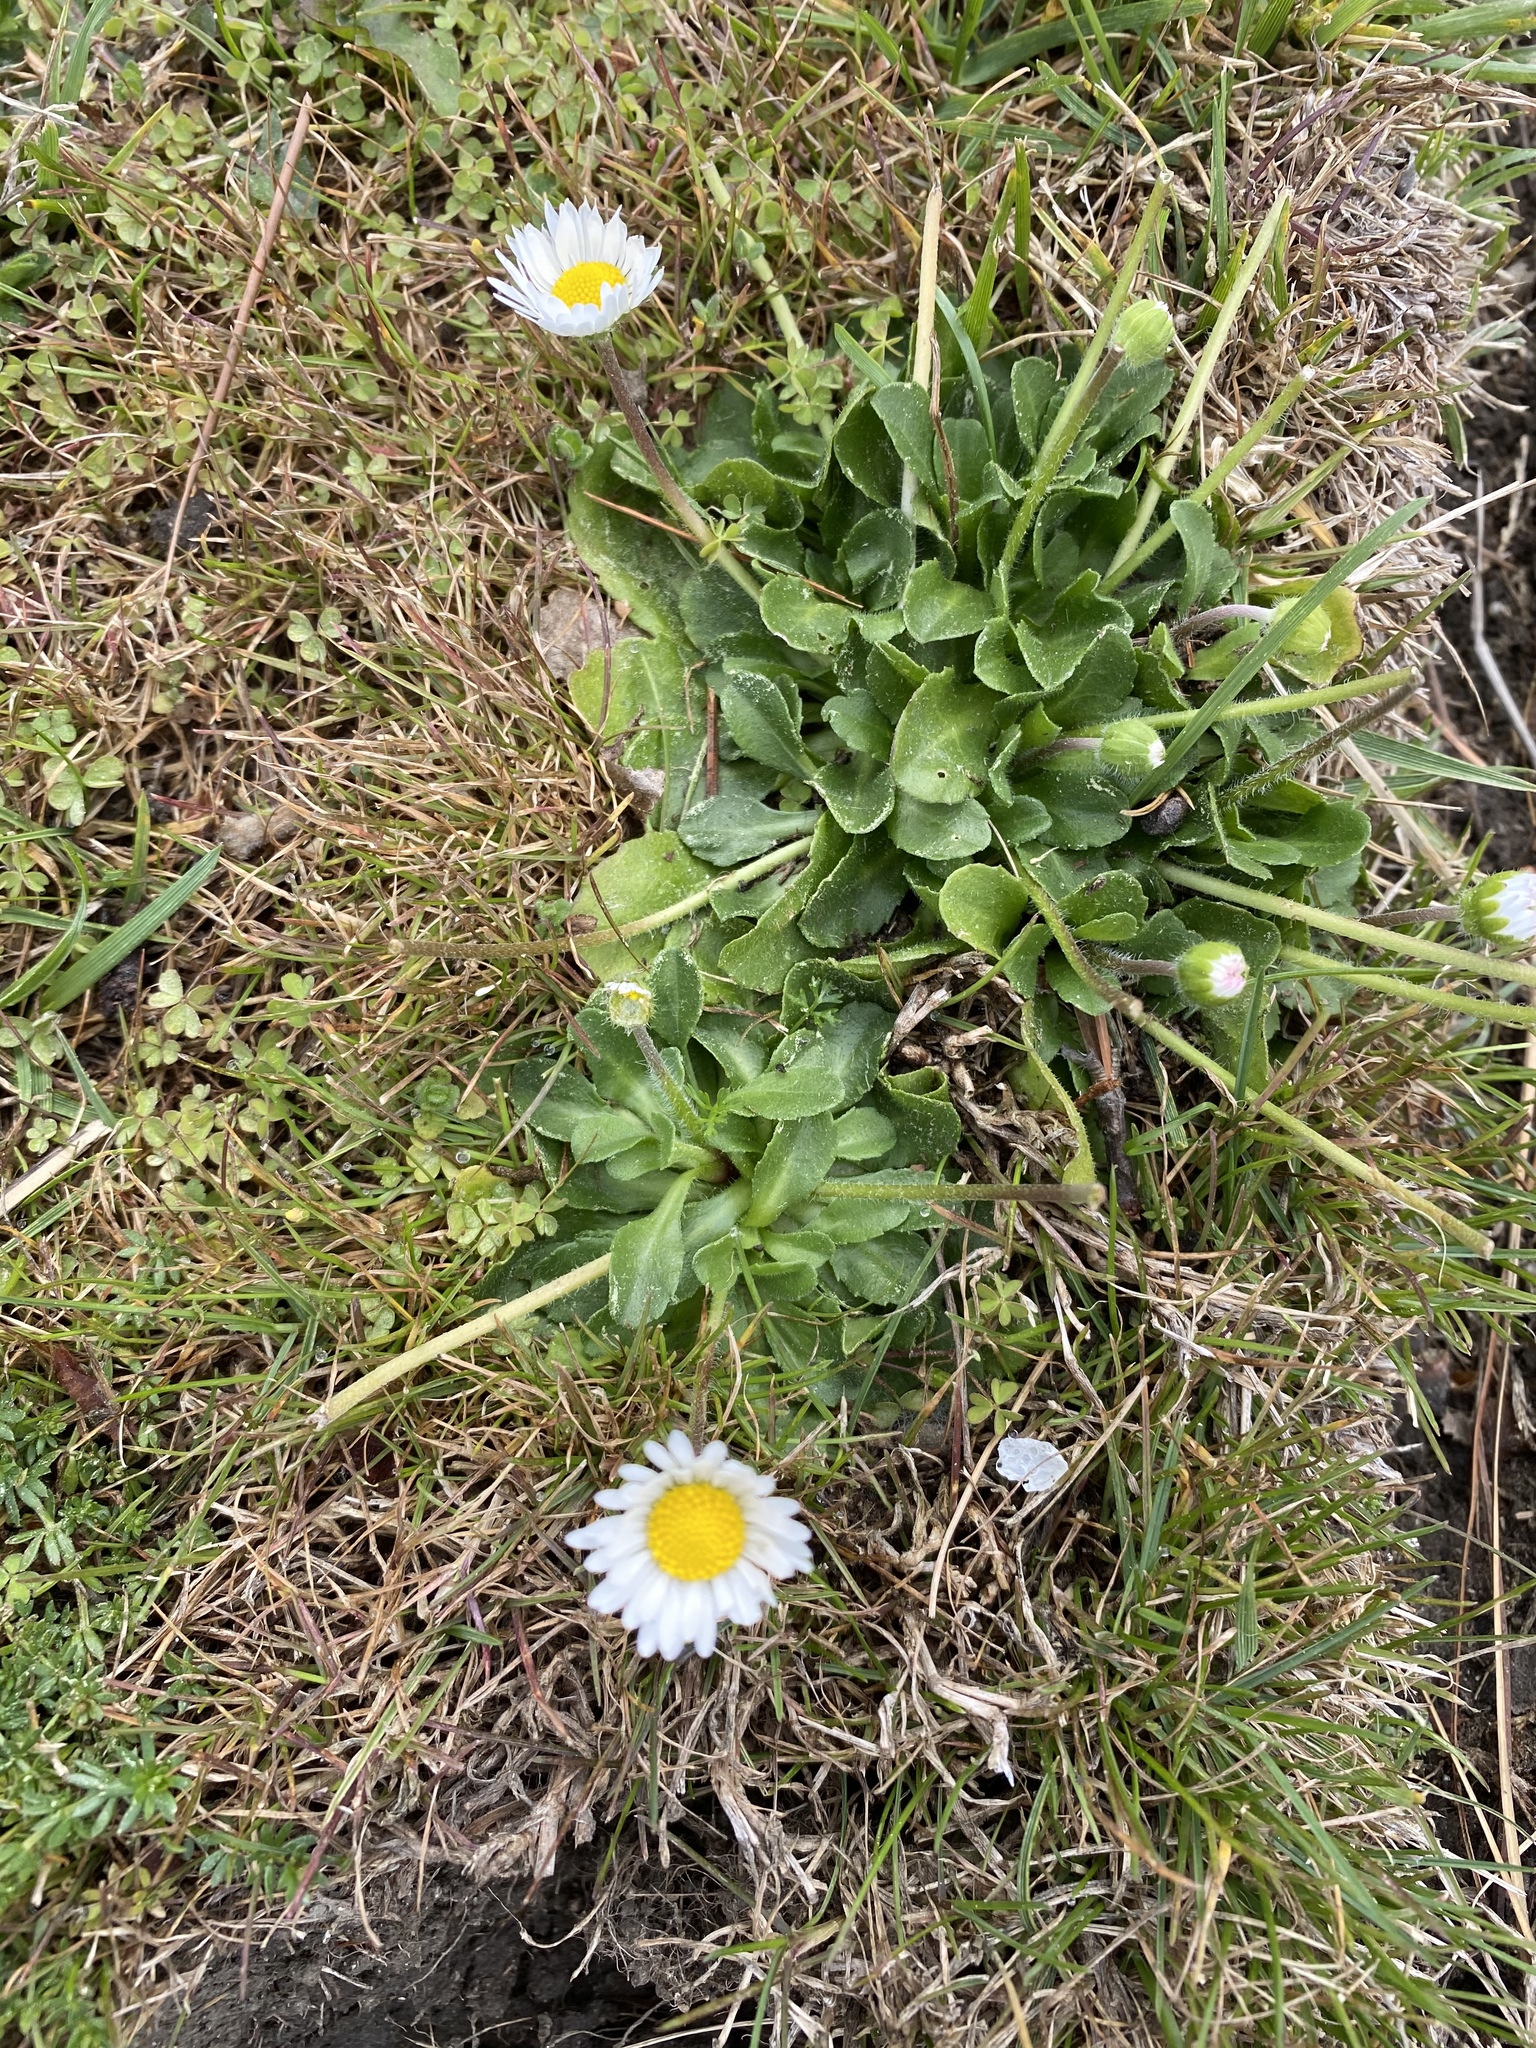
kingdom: Plantae
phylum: Tracheophyta
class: Magnoliopsida
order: Asterales
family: Asteraceae
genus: Bellis
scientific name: Bellis perennis
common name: Lawndaisy
